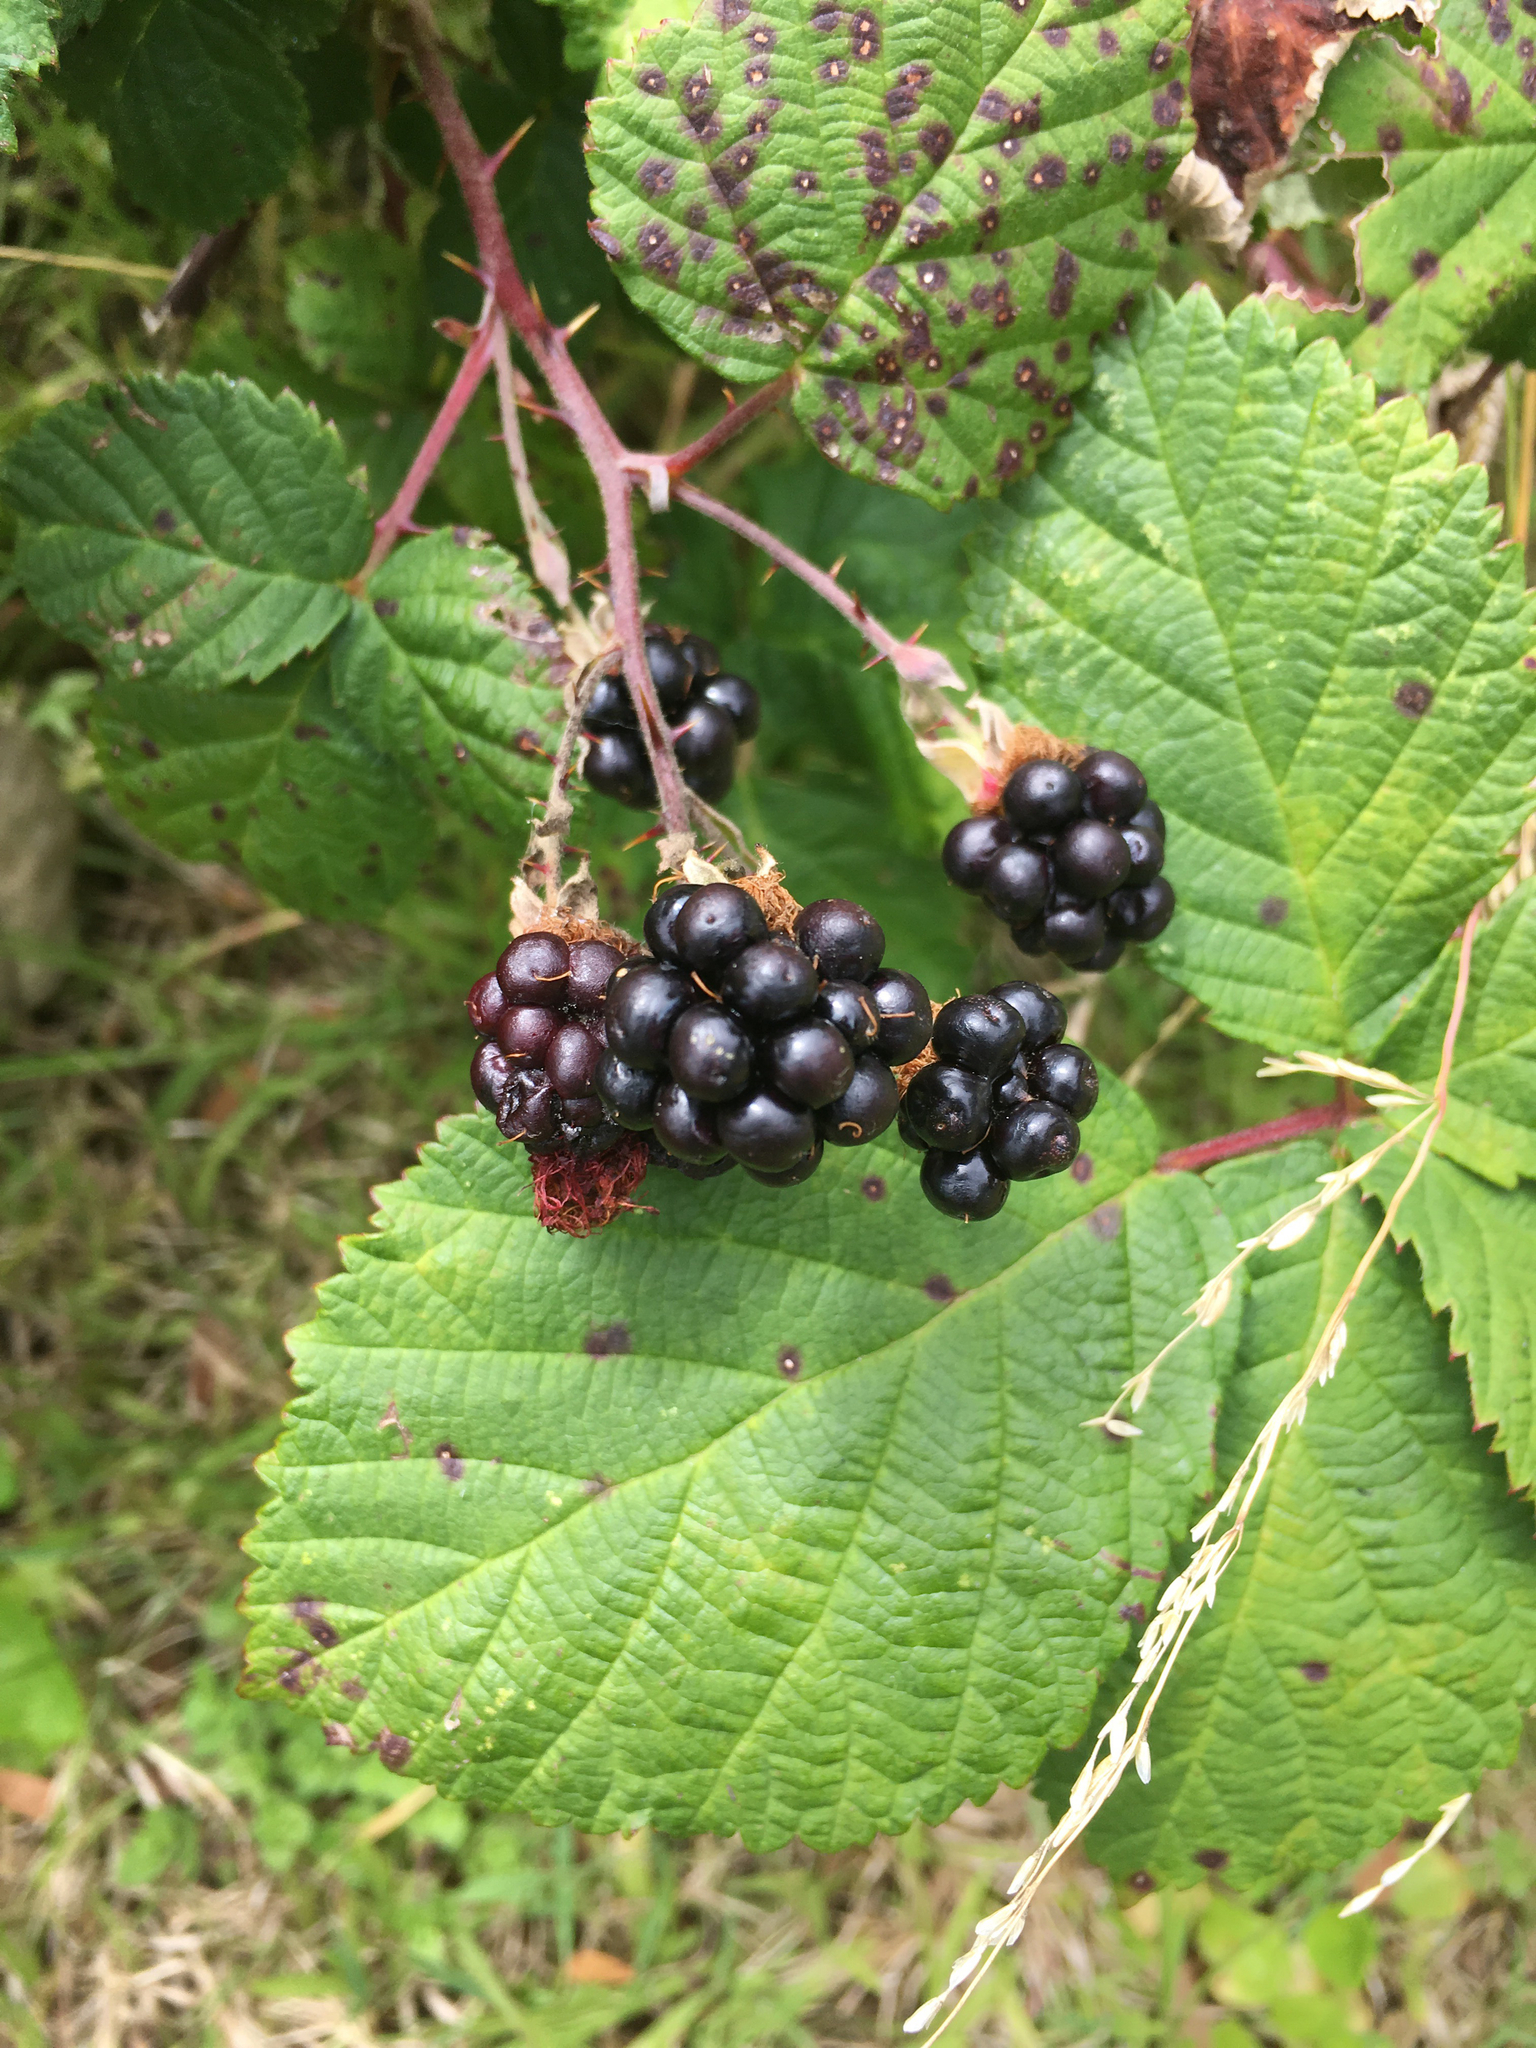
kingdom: Plantae
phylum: Tracheophyta
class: Magnoliopsida
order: Rosales
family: Rosaceae
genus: Rubus
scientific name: Rubus armeniacus
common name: Himalayan blackberry
